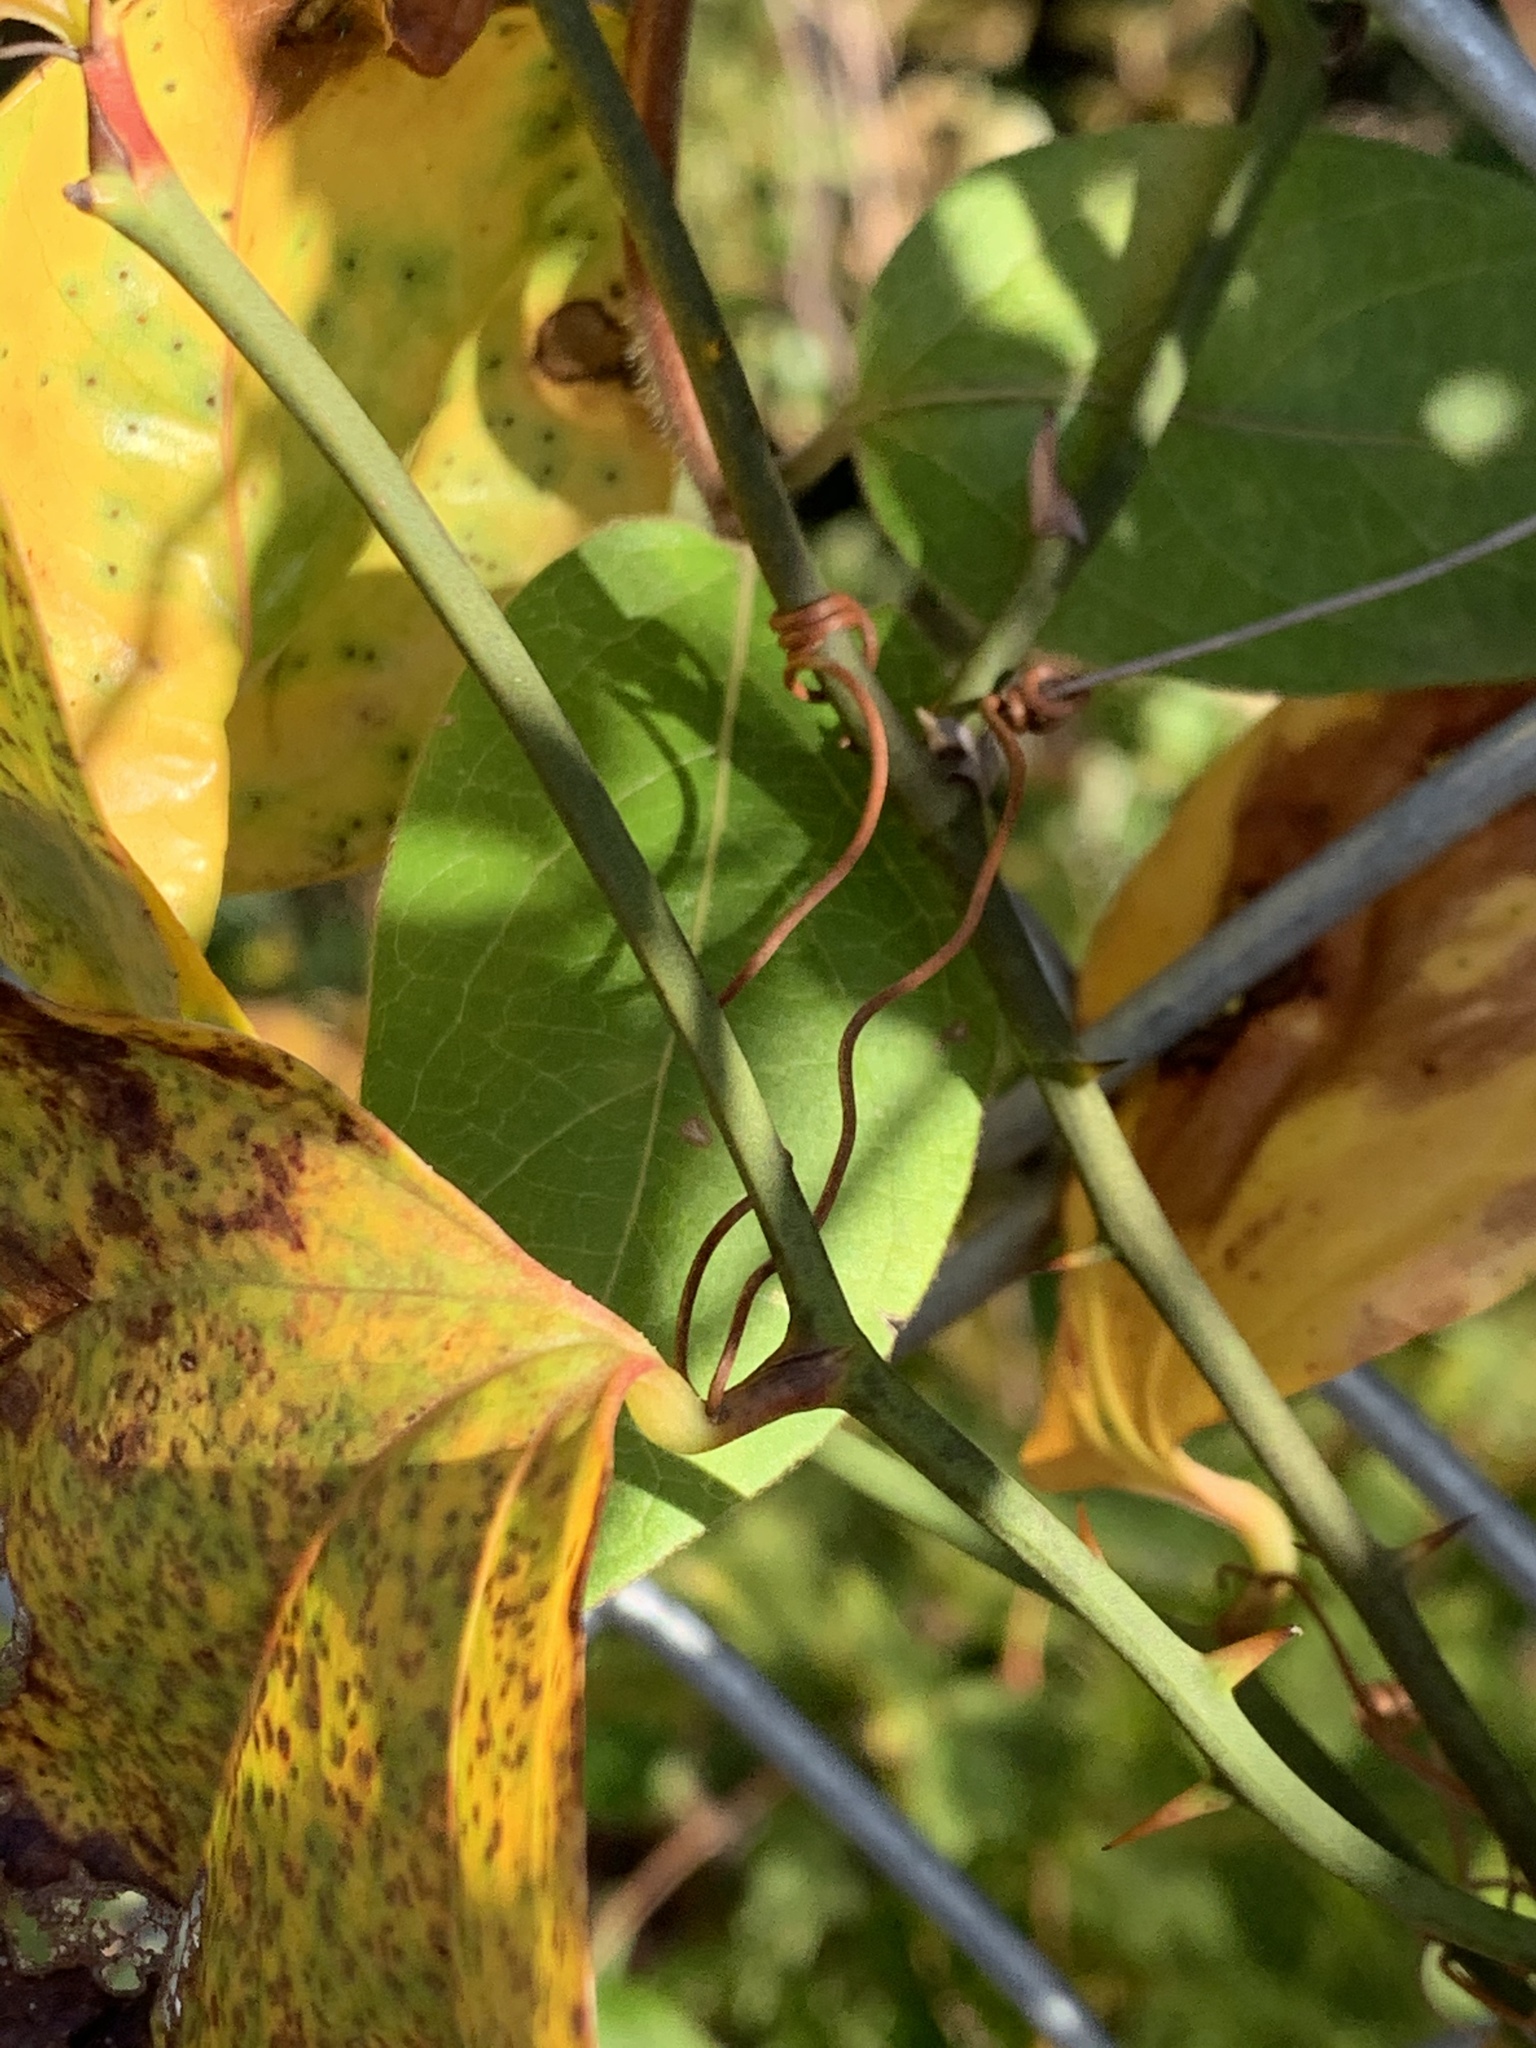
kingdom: Plantae
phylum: Tracheophyta
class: Liliopsida
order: Liliales
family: Smilacaceae
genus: Smilax
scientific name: Smilax rotundifolia
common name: Bullbriar
